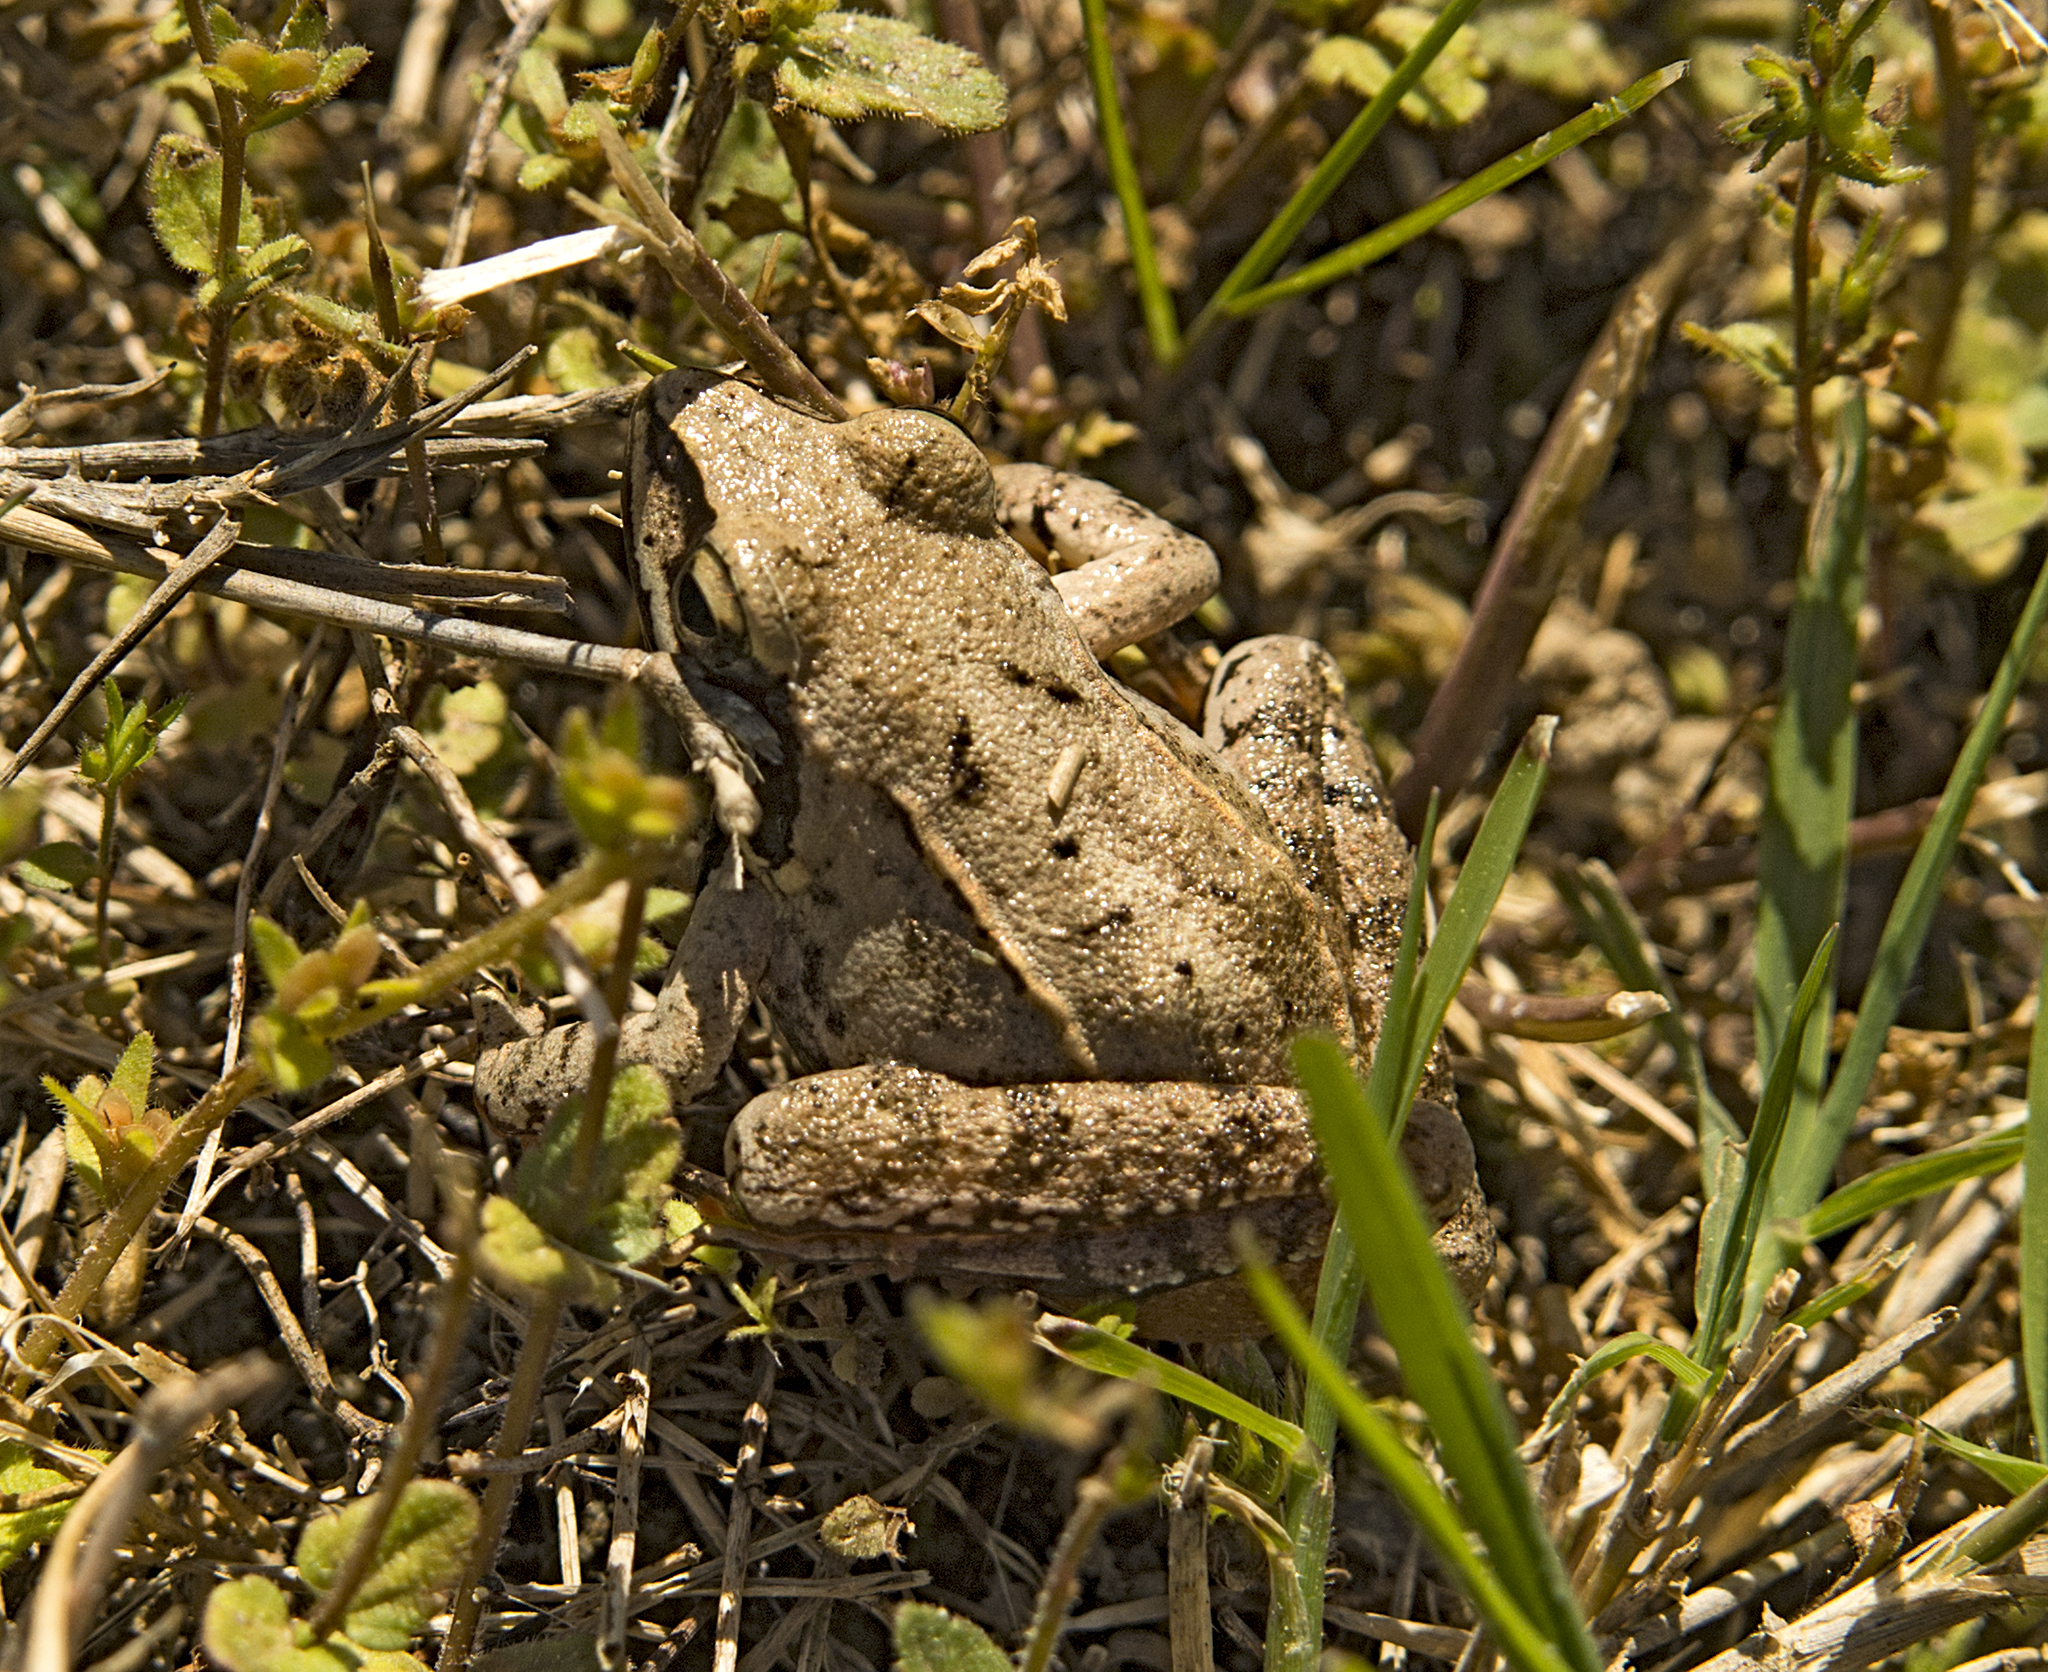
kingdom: Animalia
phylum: Chordata
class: Amphibia
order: Anura
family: Ranidae
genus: Rana
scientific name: Rana dalmatina
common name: Agile frog
